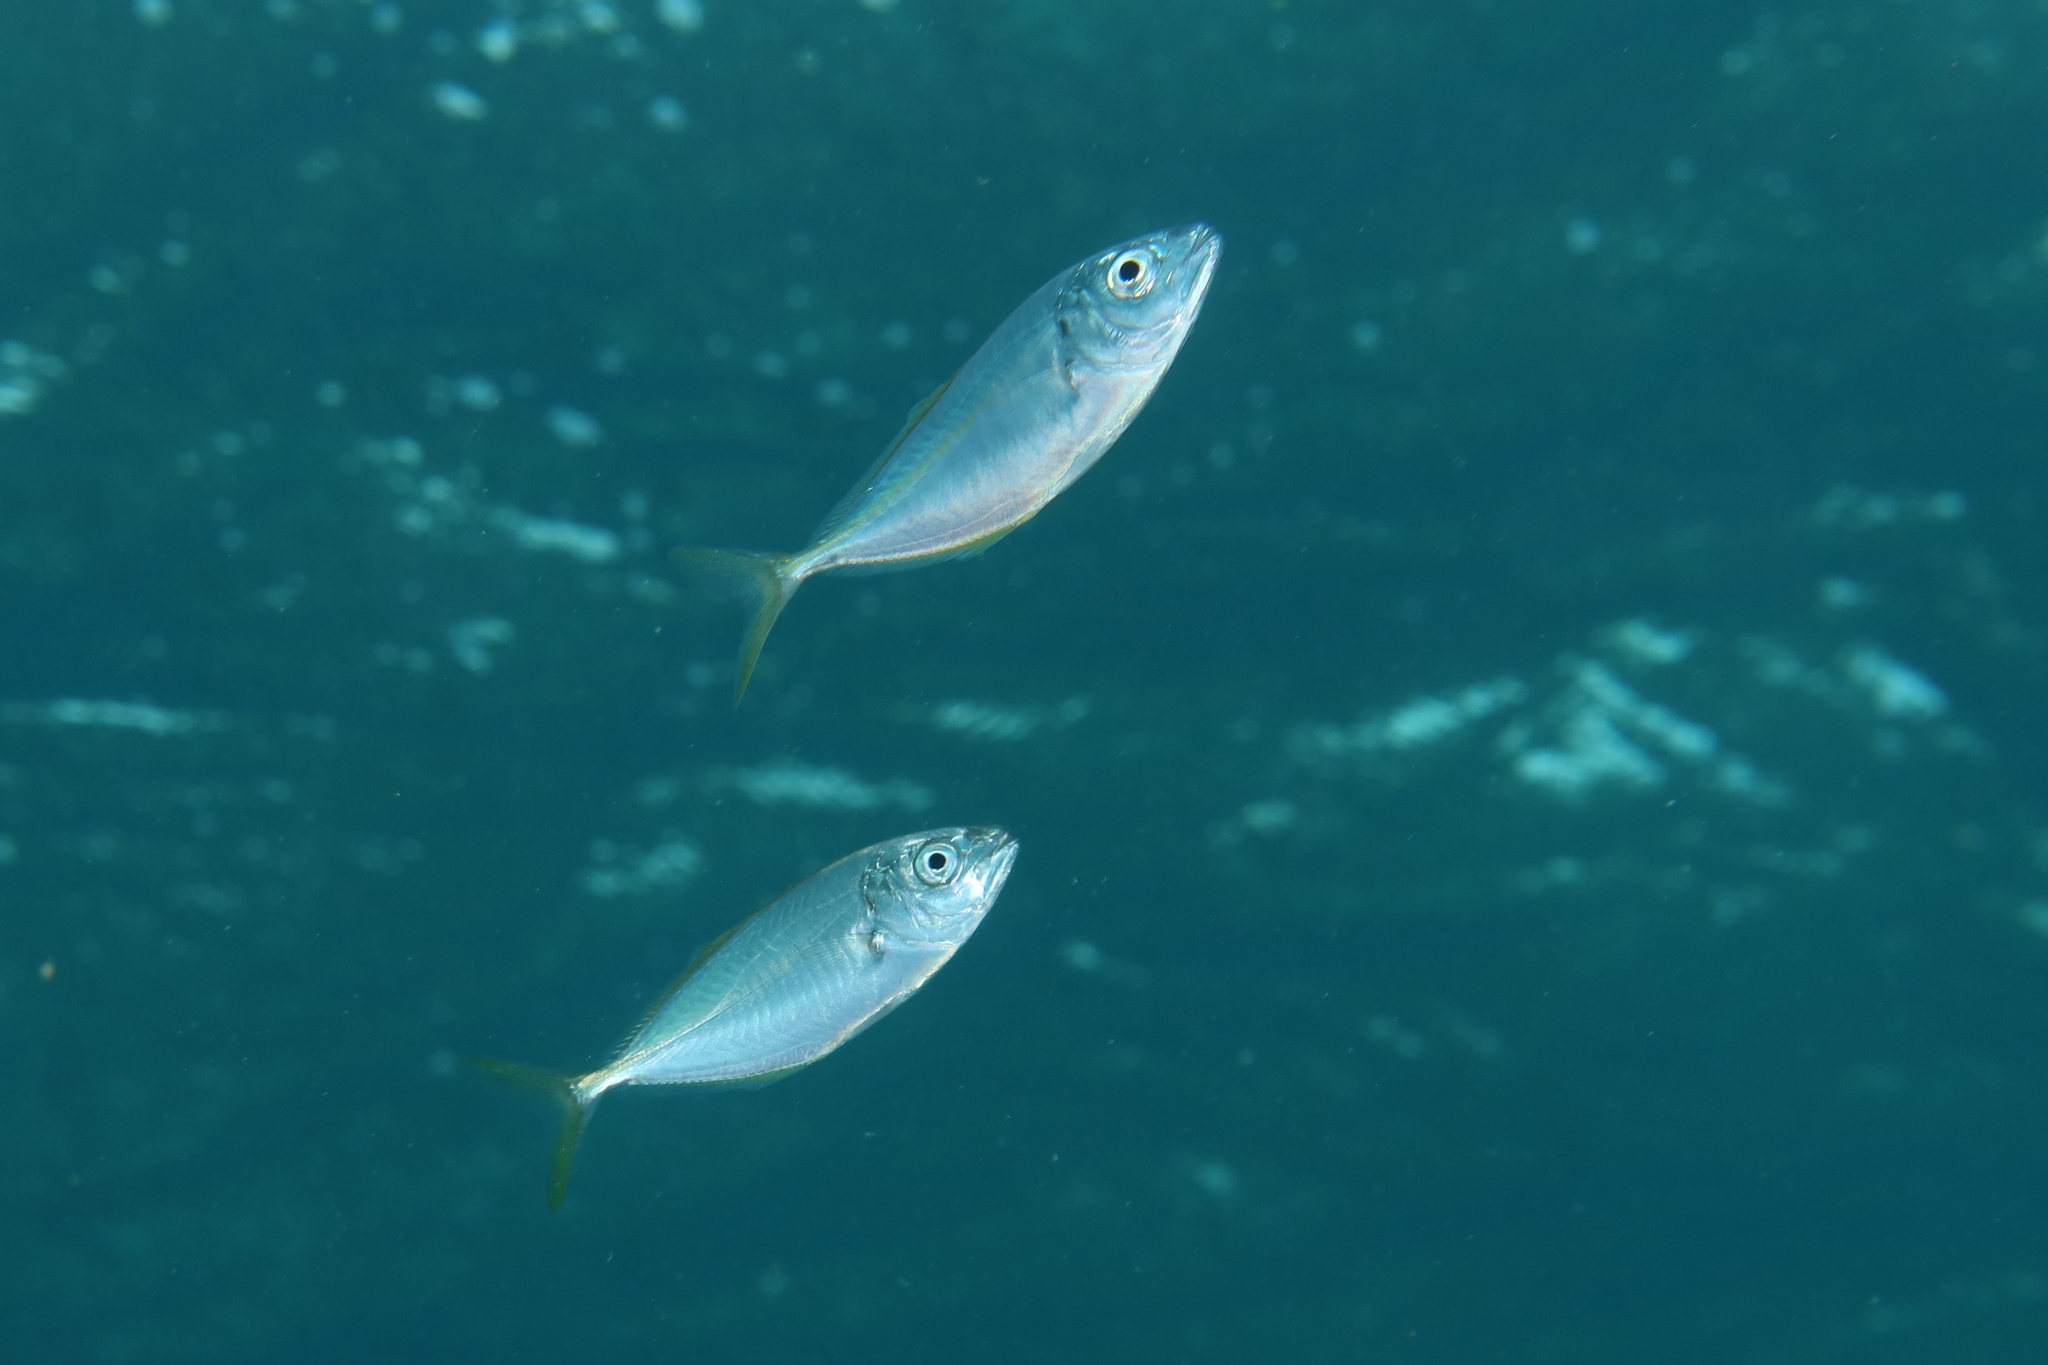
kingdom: Animalia
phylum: Chordata
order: Perciformes
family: Carangidae
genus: Pseudocaranx
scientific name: Pseudocaranx dentex
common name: White trevally
